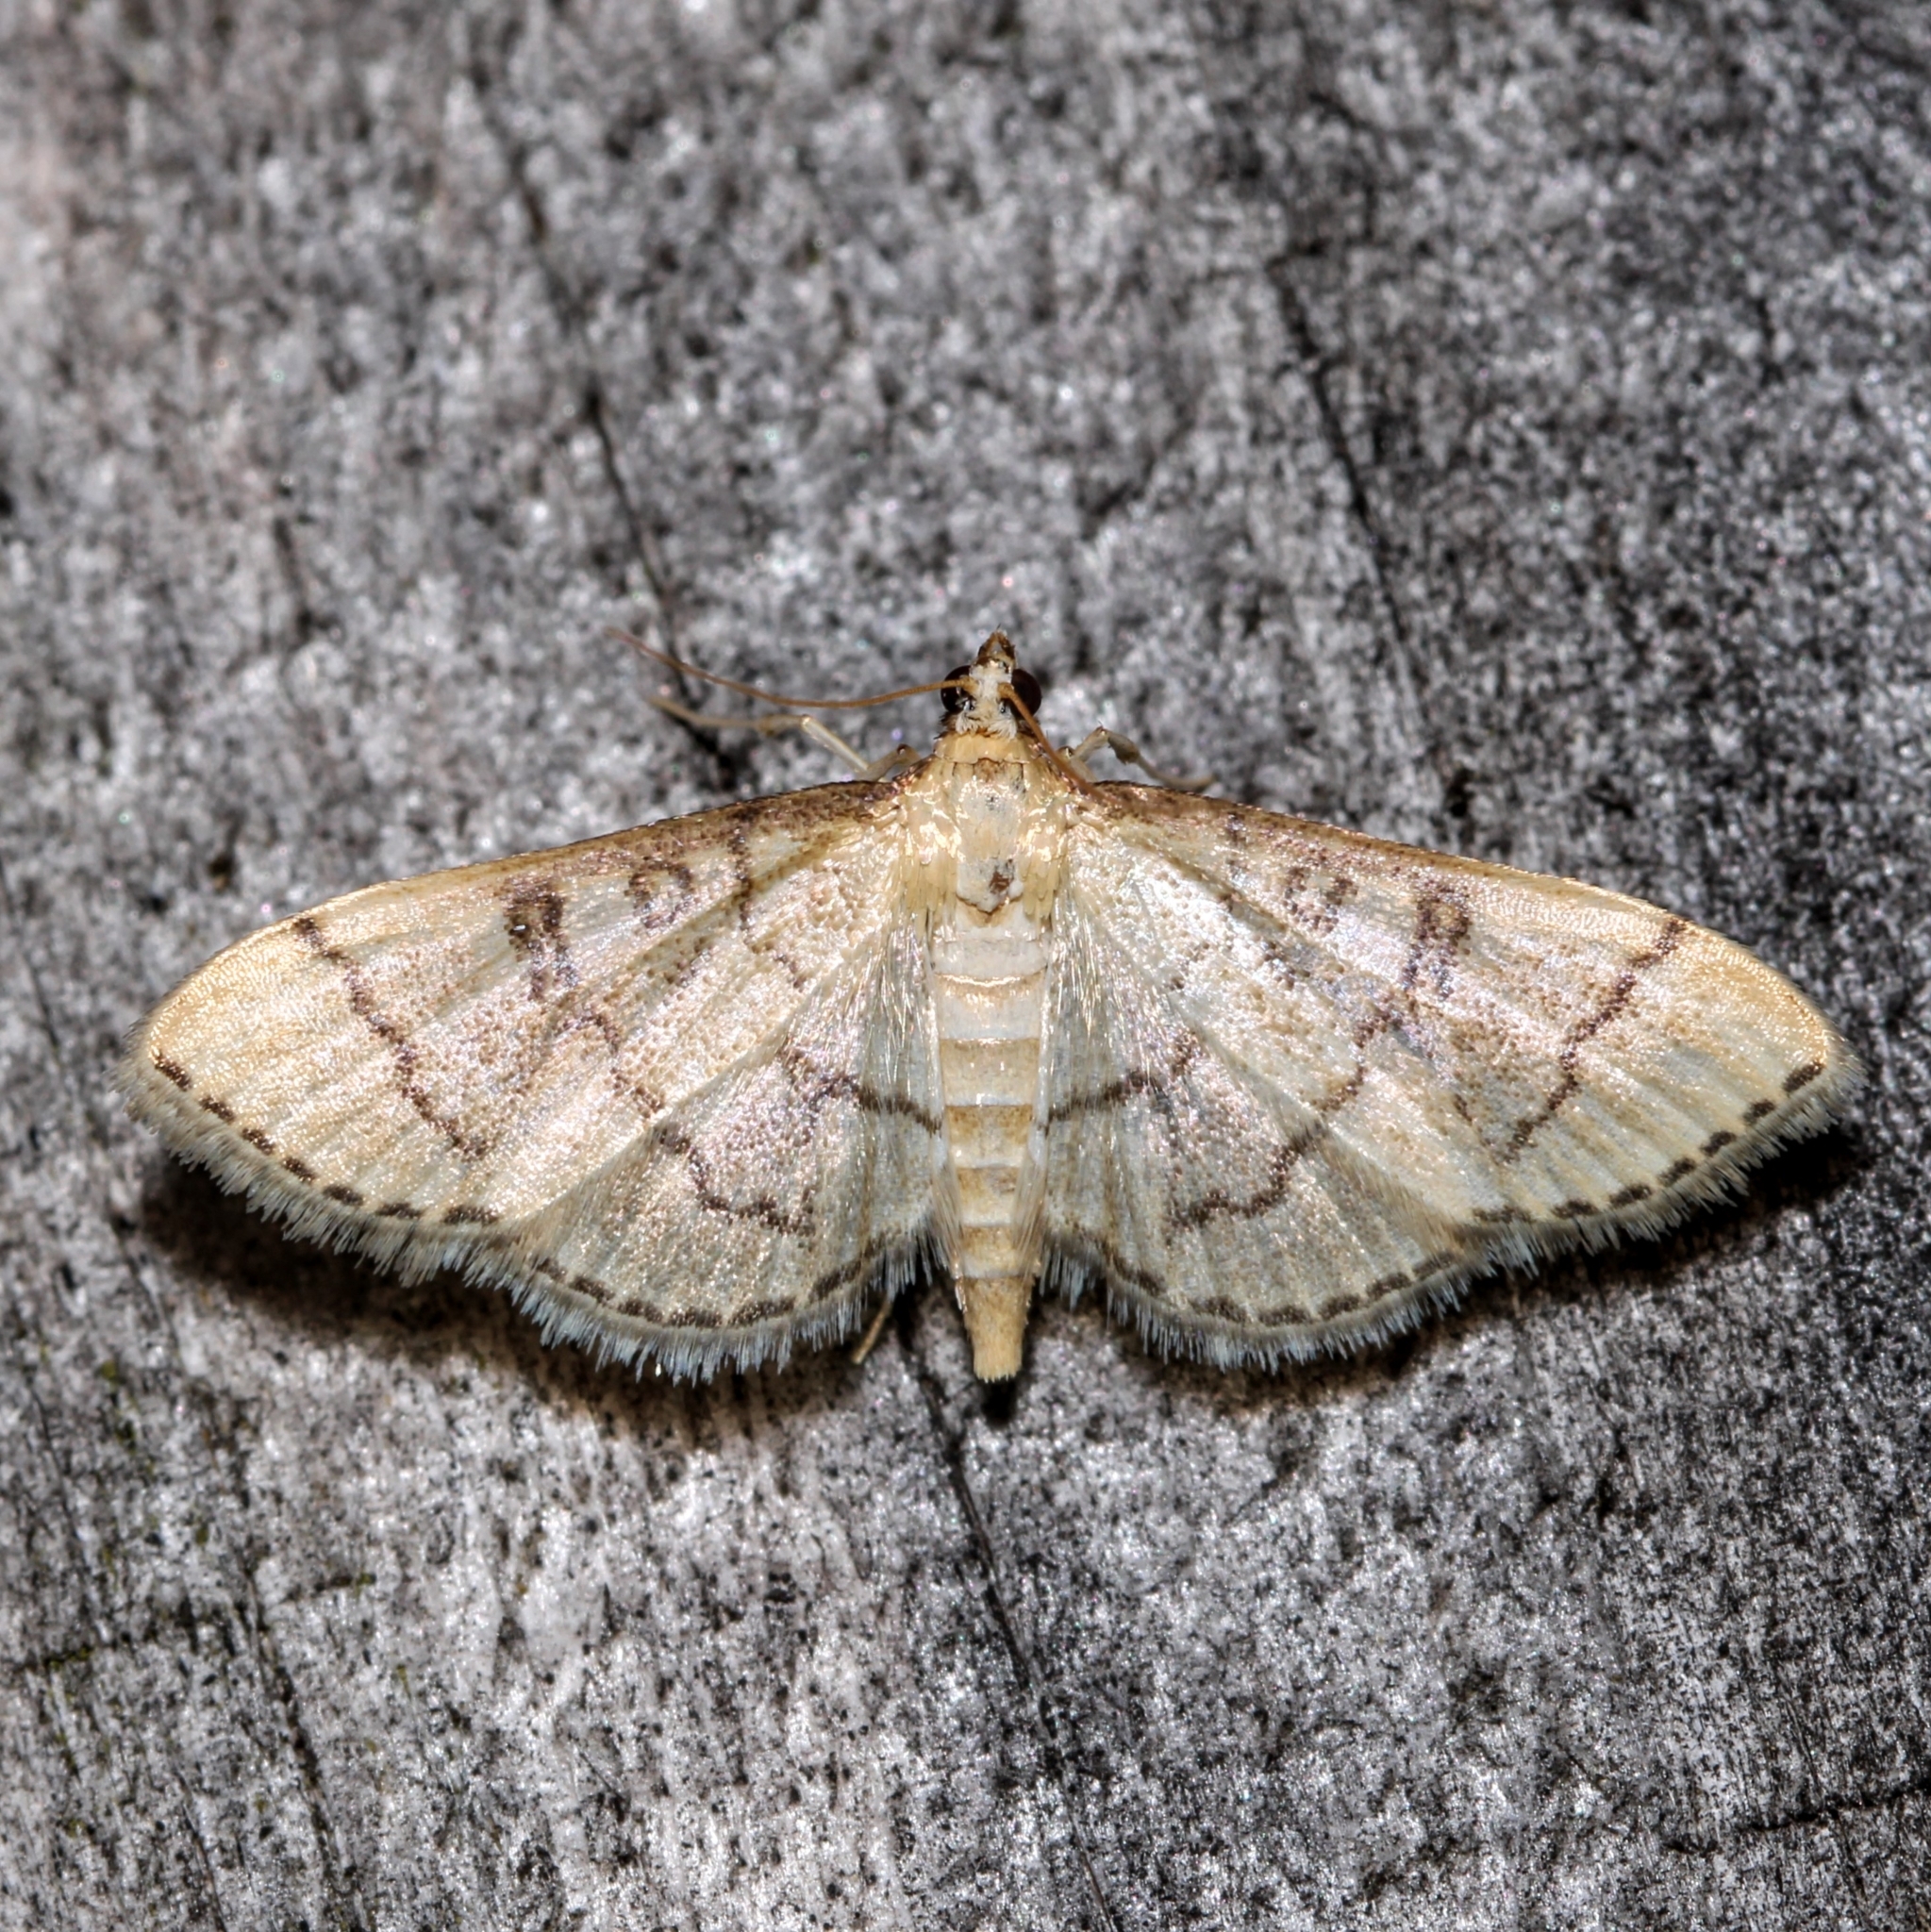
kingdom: Animalia
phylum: Arthropoda
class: Insecta
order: Lepidoptera
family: Crambidae
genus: Lamprosema
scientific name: Lamprosema Blepharomastix ranalis
